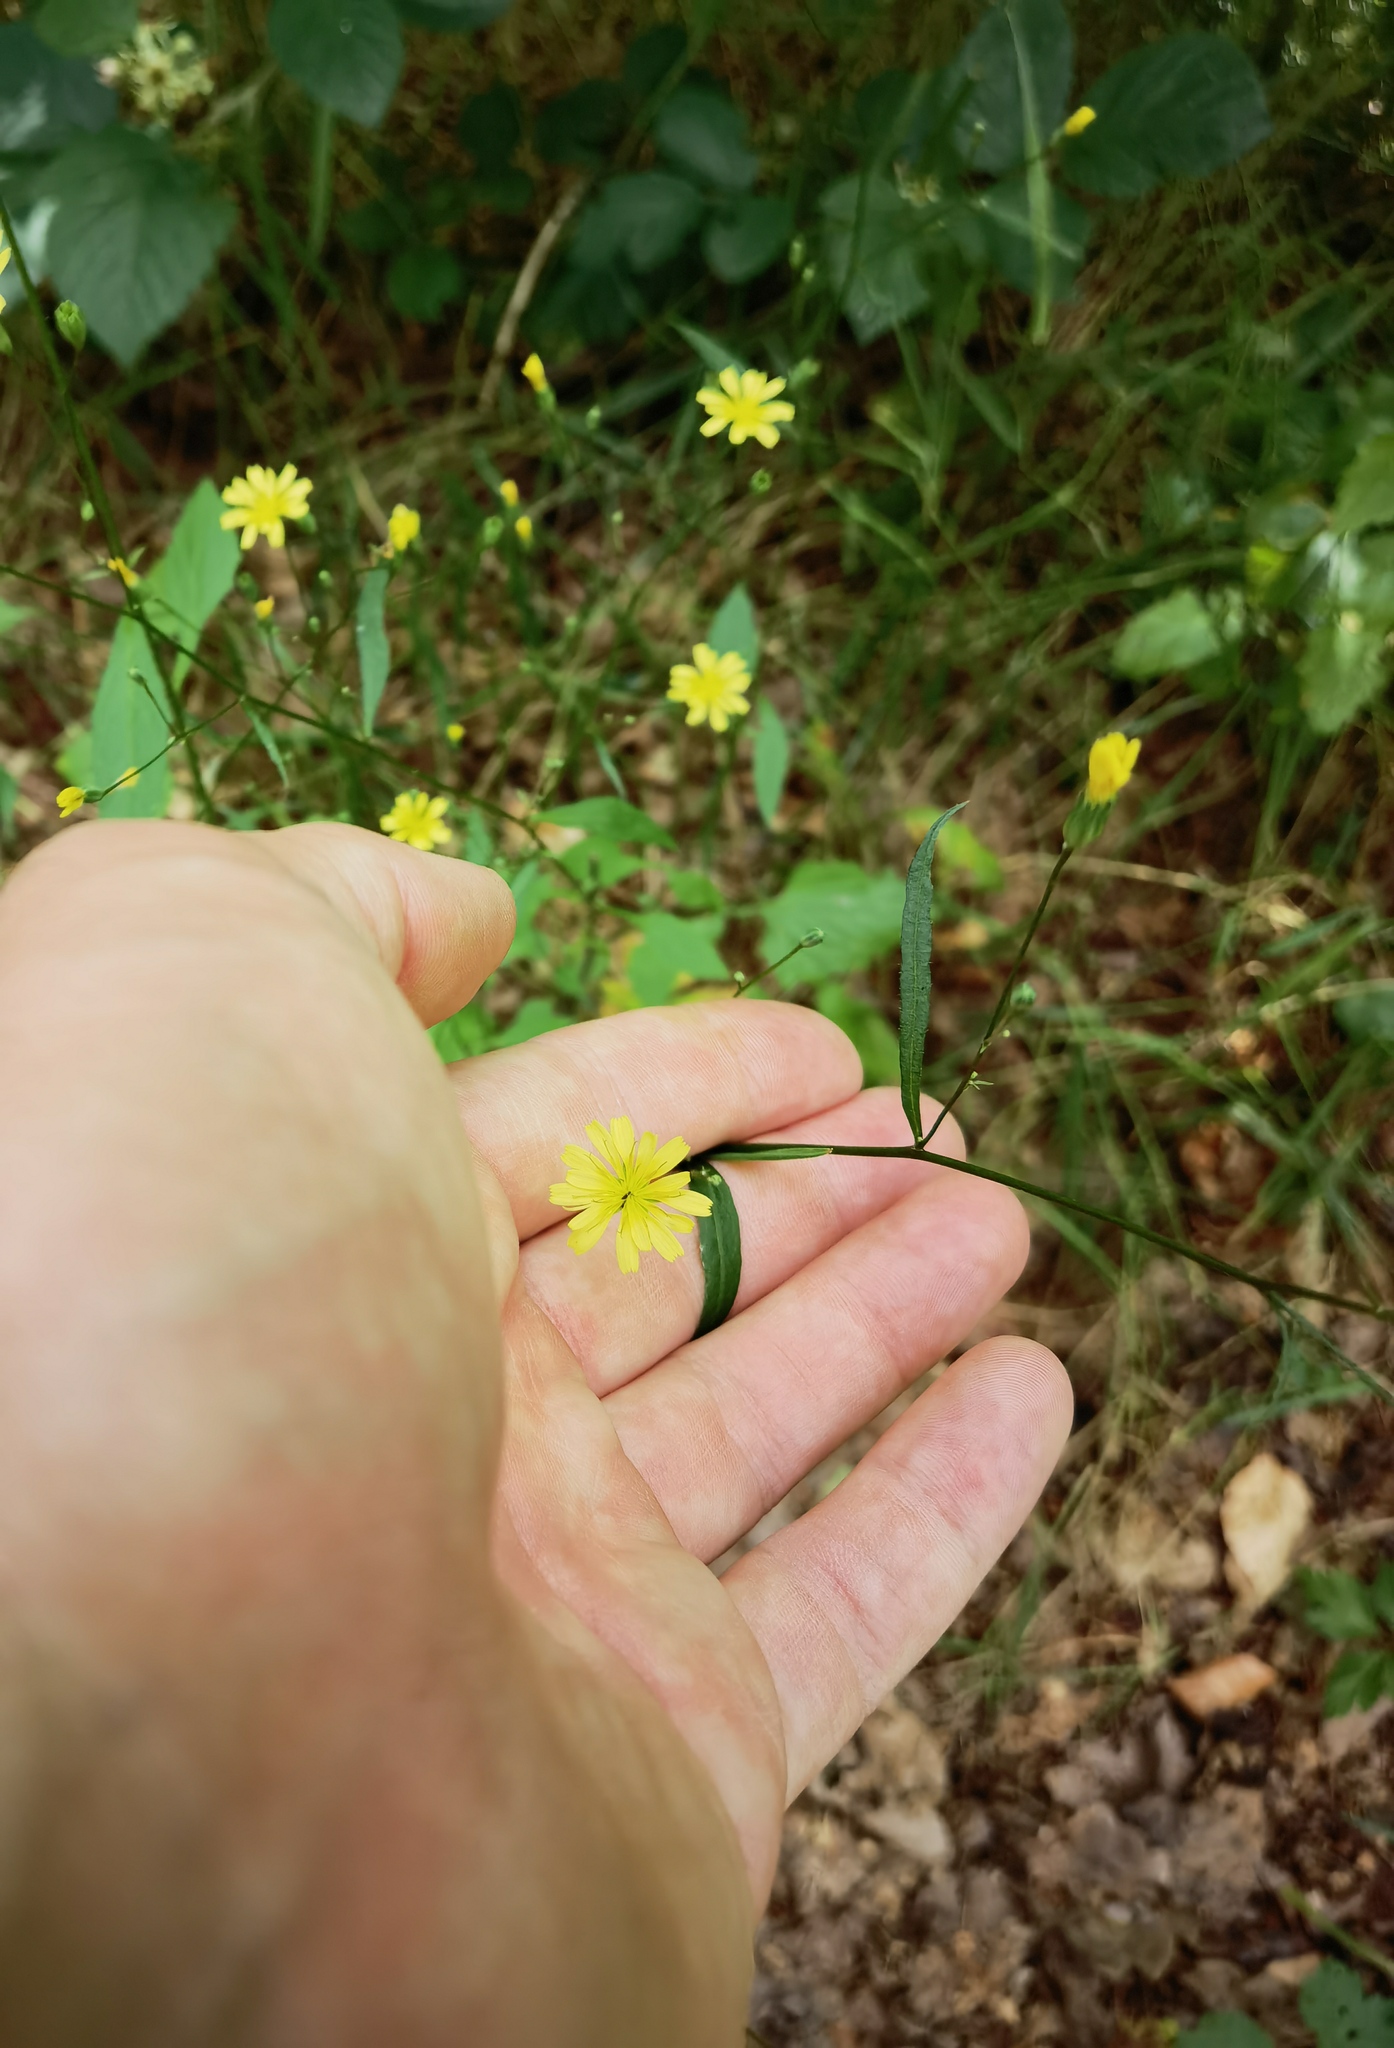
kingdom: Plantae
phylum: Tracheophyta
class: Magnoliopsida
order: Asterales
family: Asteraceae
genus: Lapsana
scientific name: Lapsana communis
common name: Nipplewort
